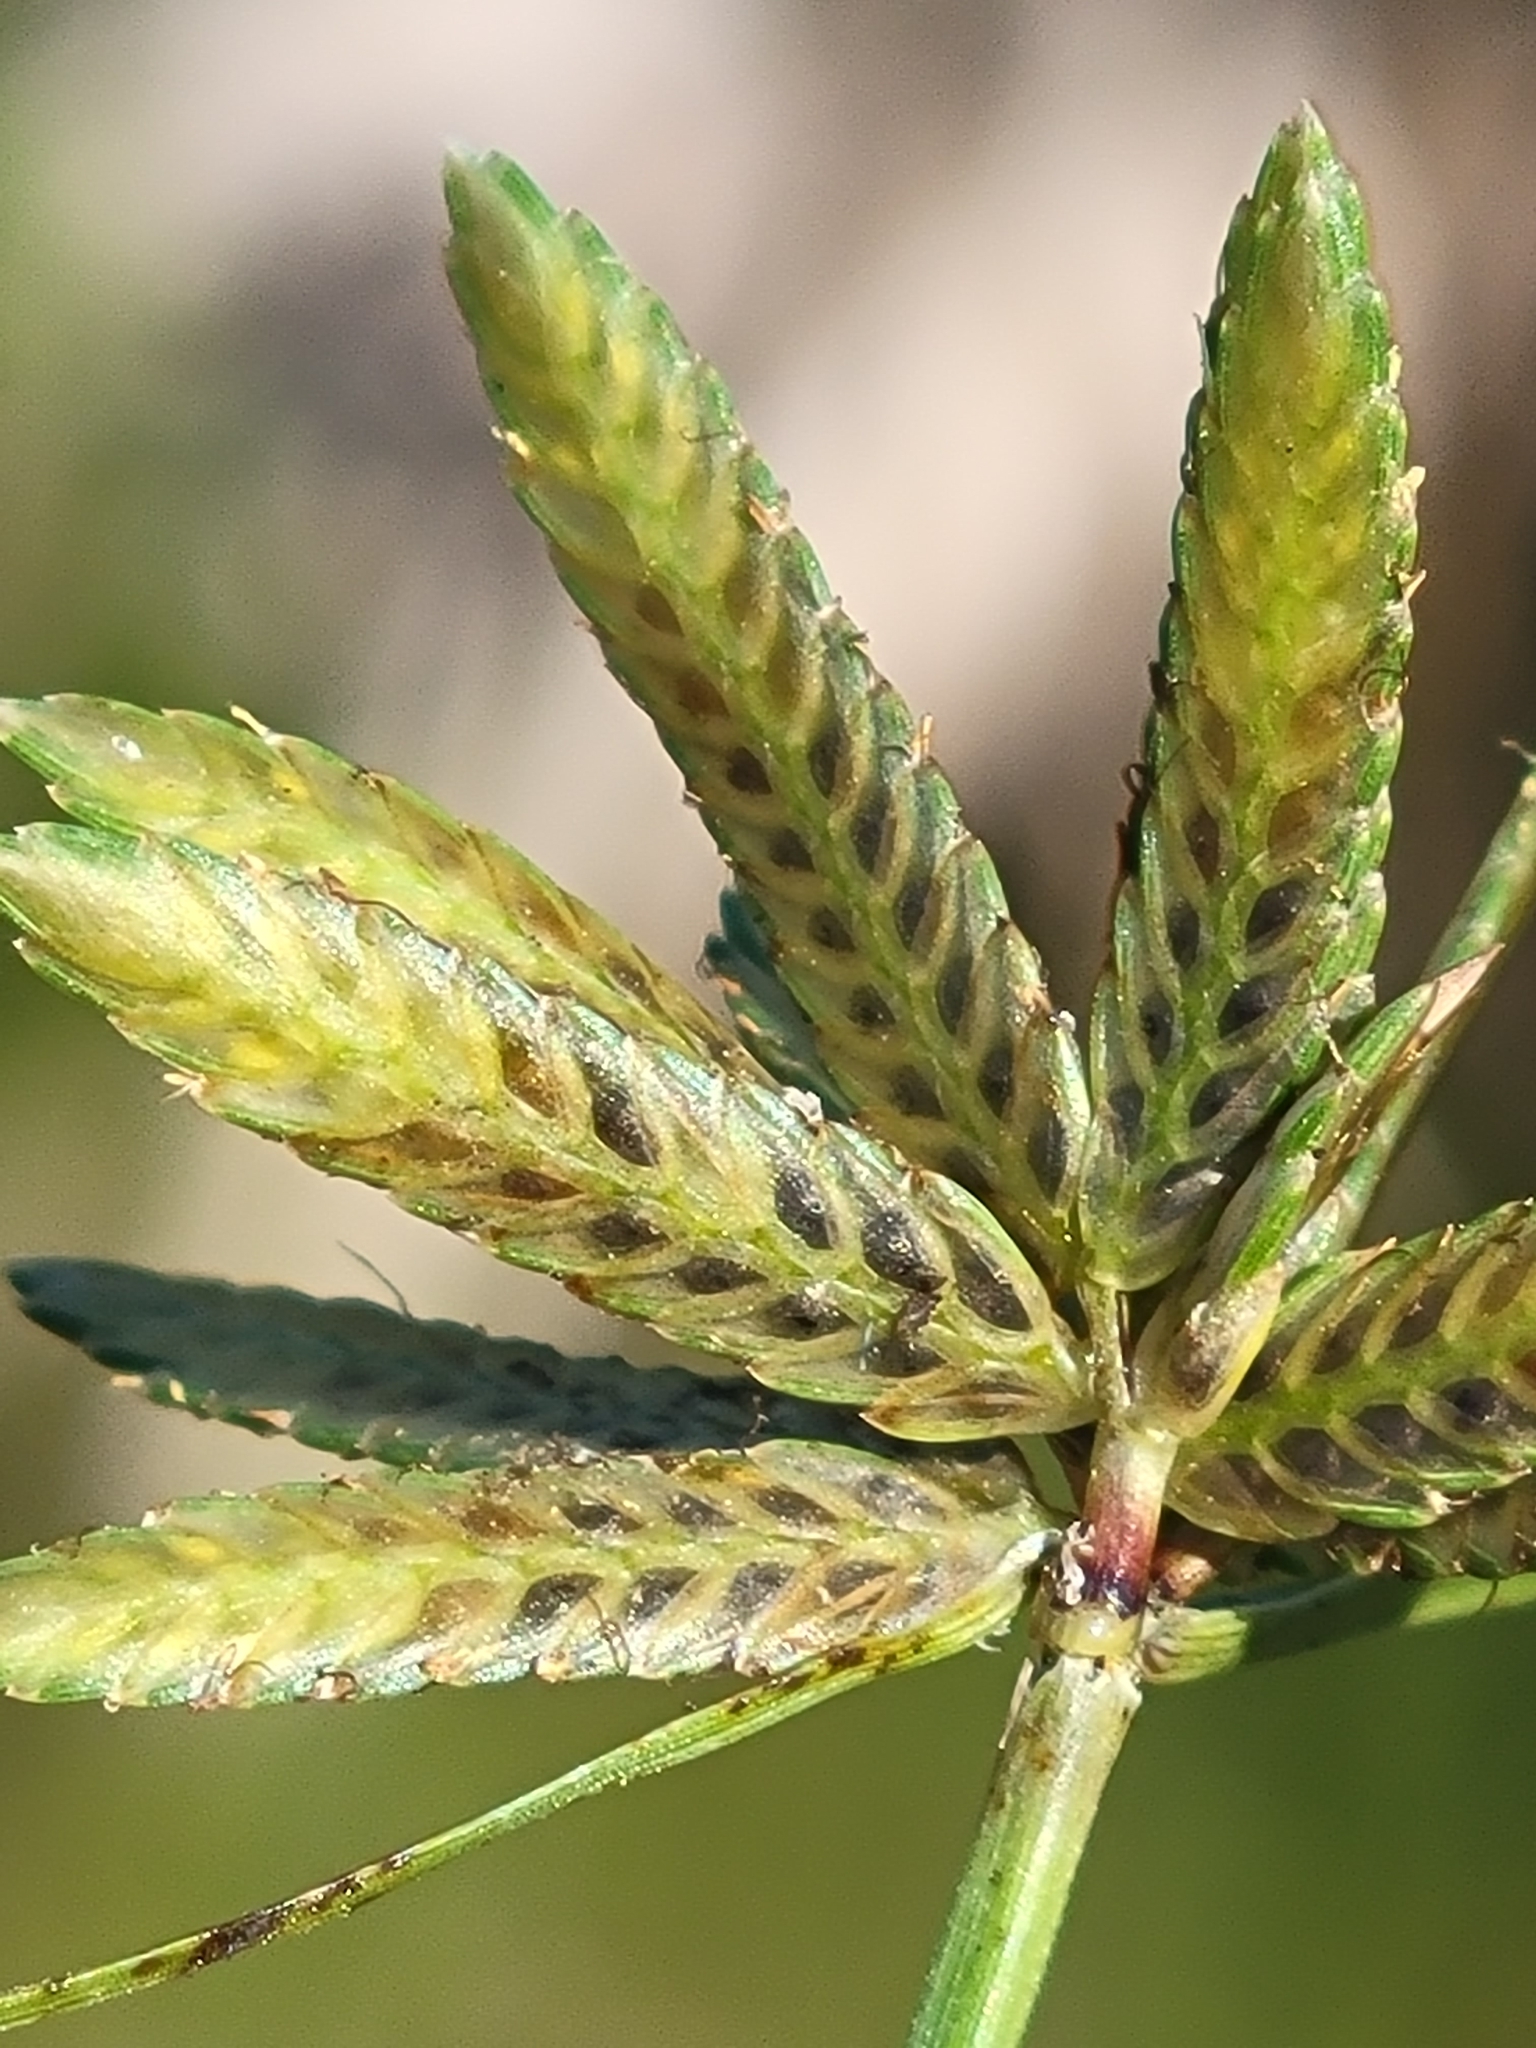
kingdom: Plantae
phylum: Tracheophyta
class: Liliopsida
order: Poales
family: Cyperaceae
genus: Cyperus
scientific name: Cyperus flavescens
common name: Yellow galingale
